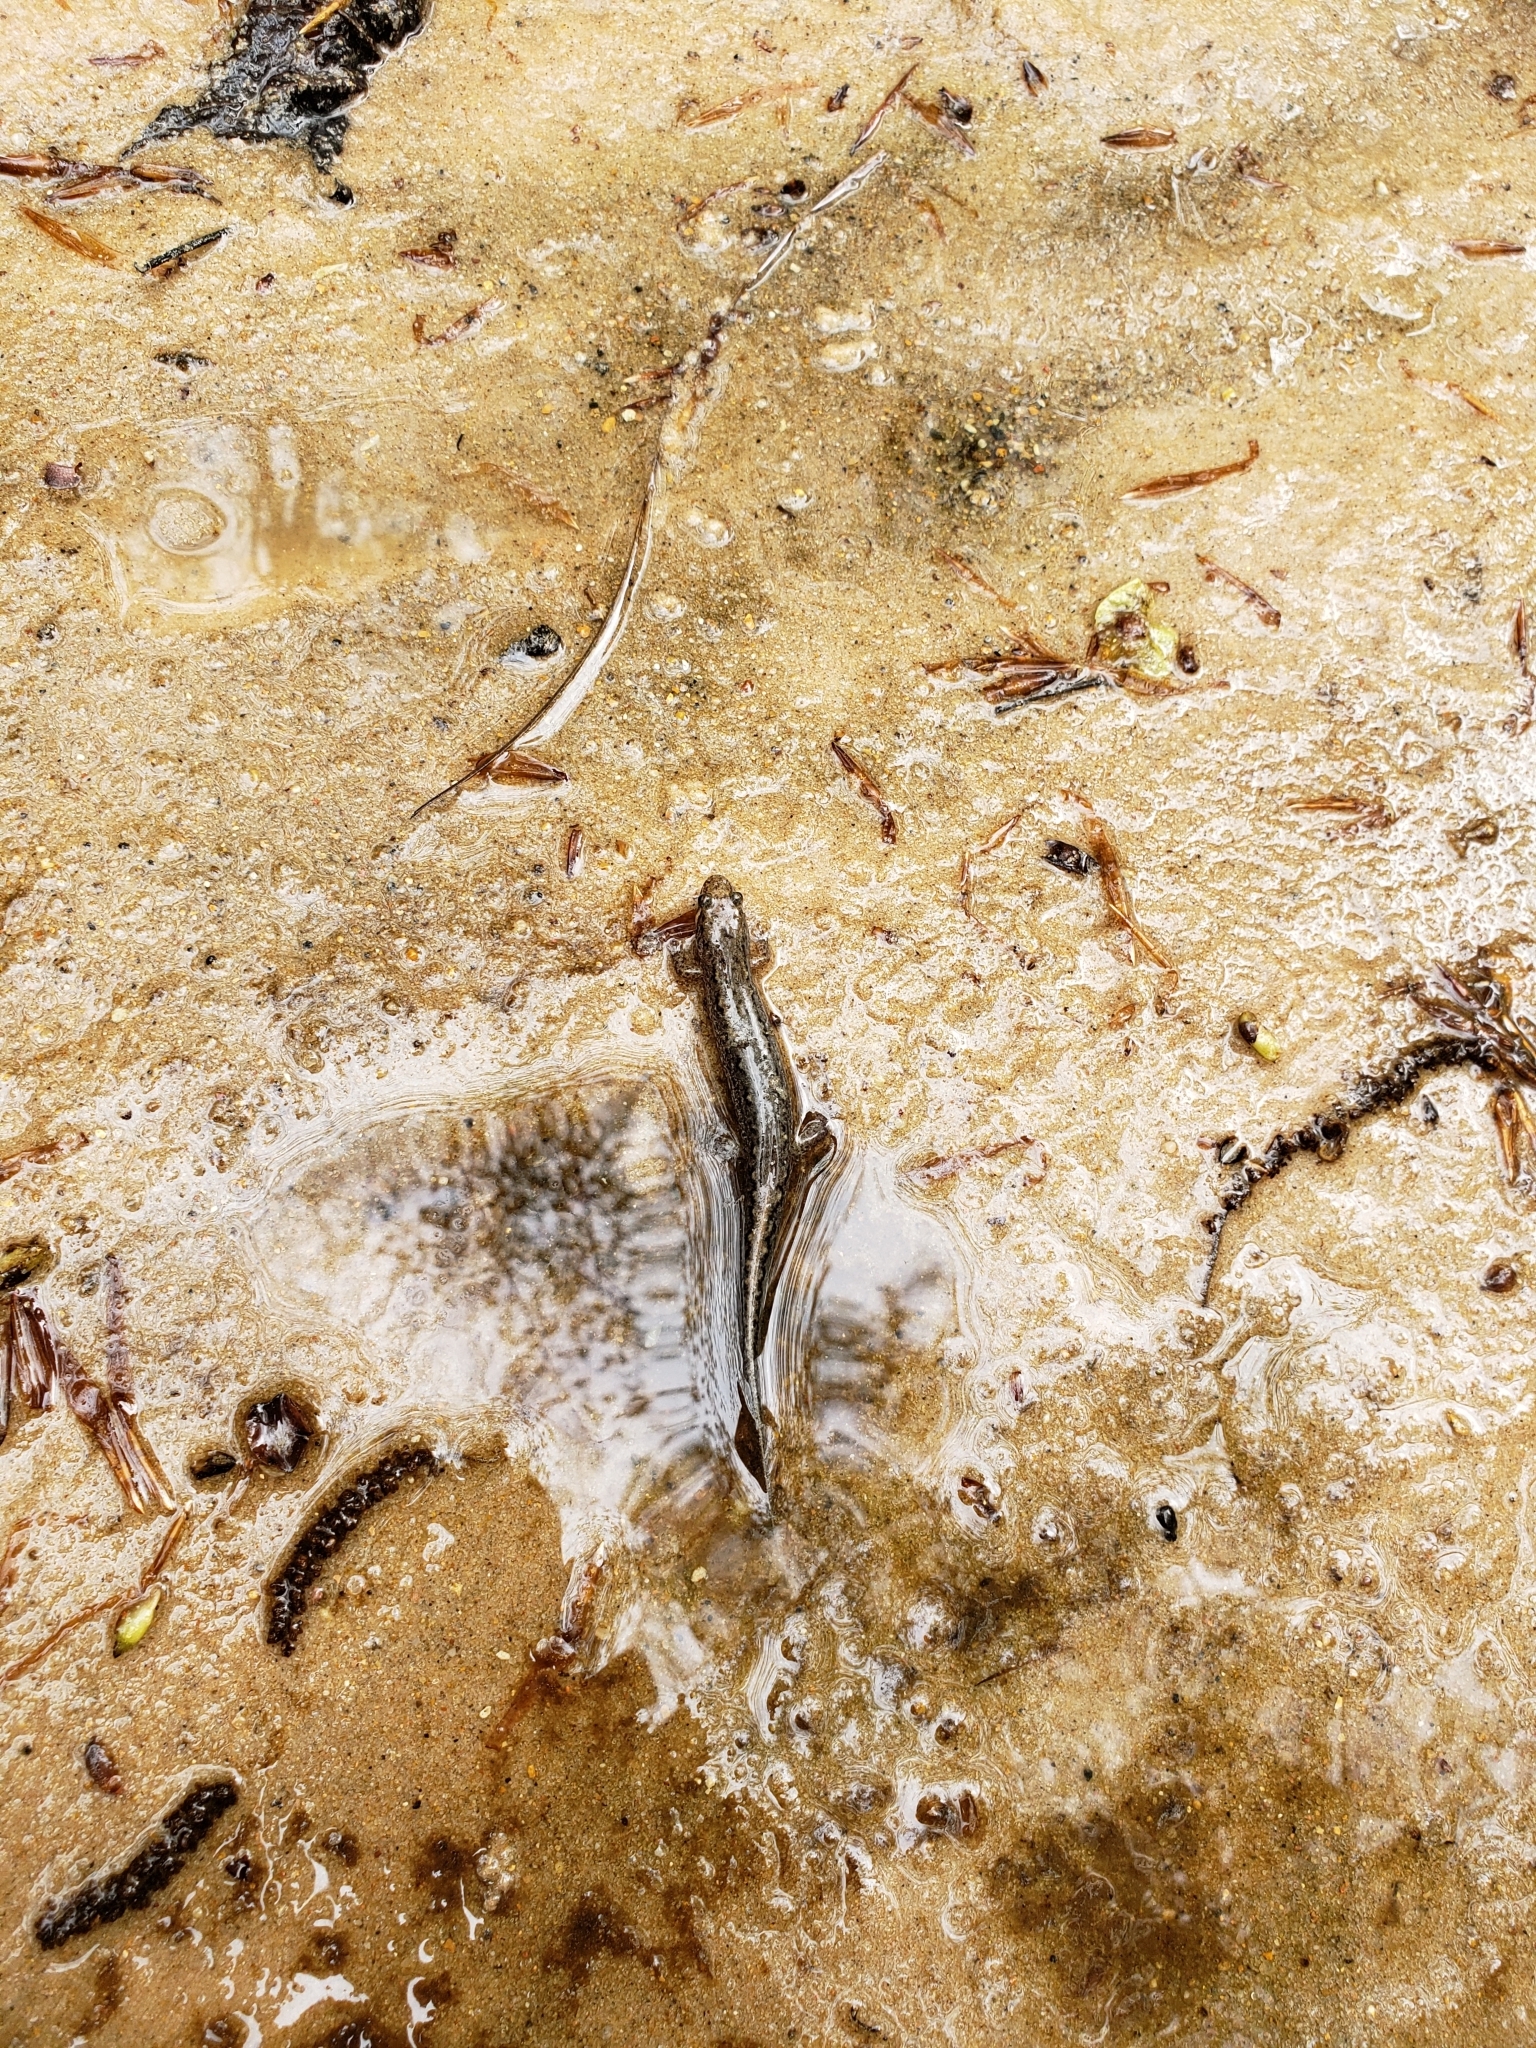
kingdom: Animalia
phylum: Chordata
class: Amphibia
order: Caudata
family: Plethodontidae
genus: Desmognathus
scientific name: Desmognathus conanti
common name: Spotted dusky salamander
